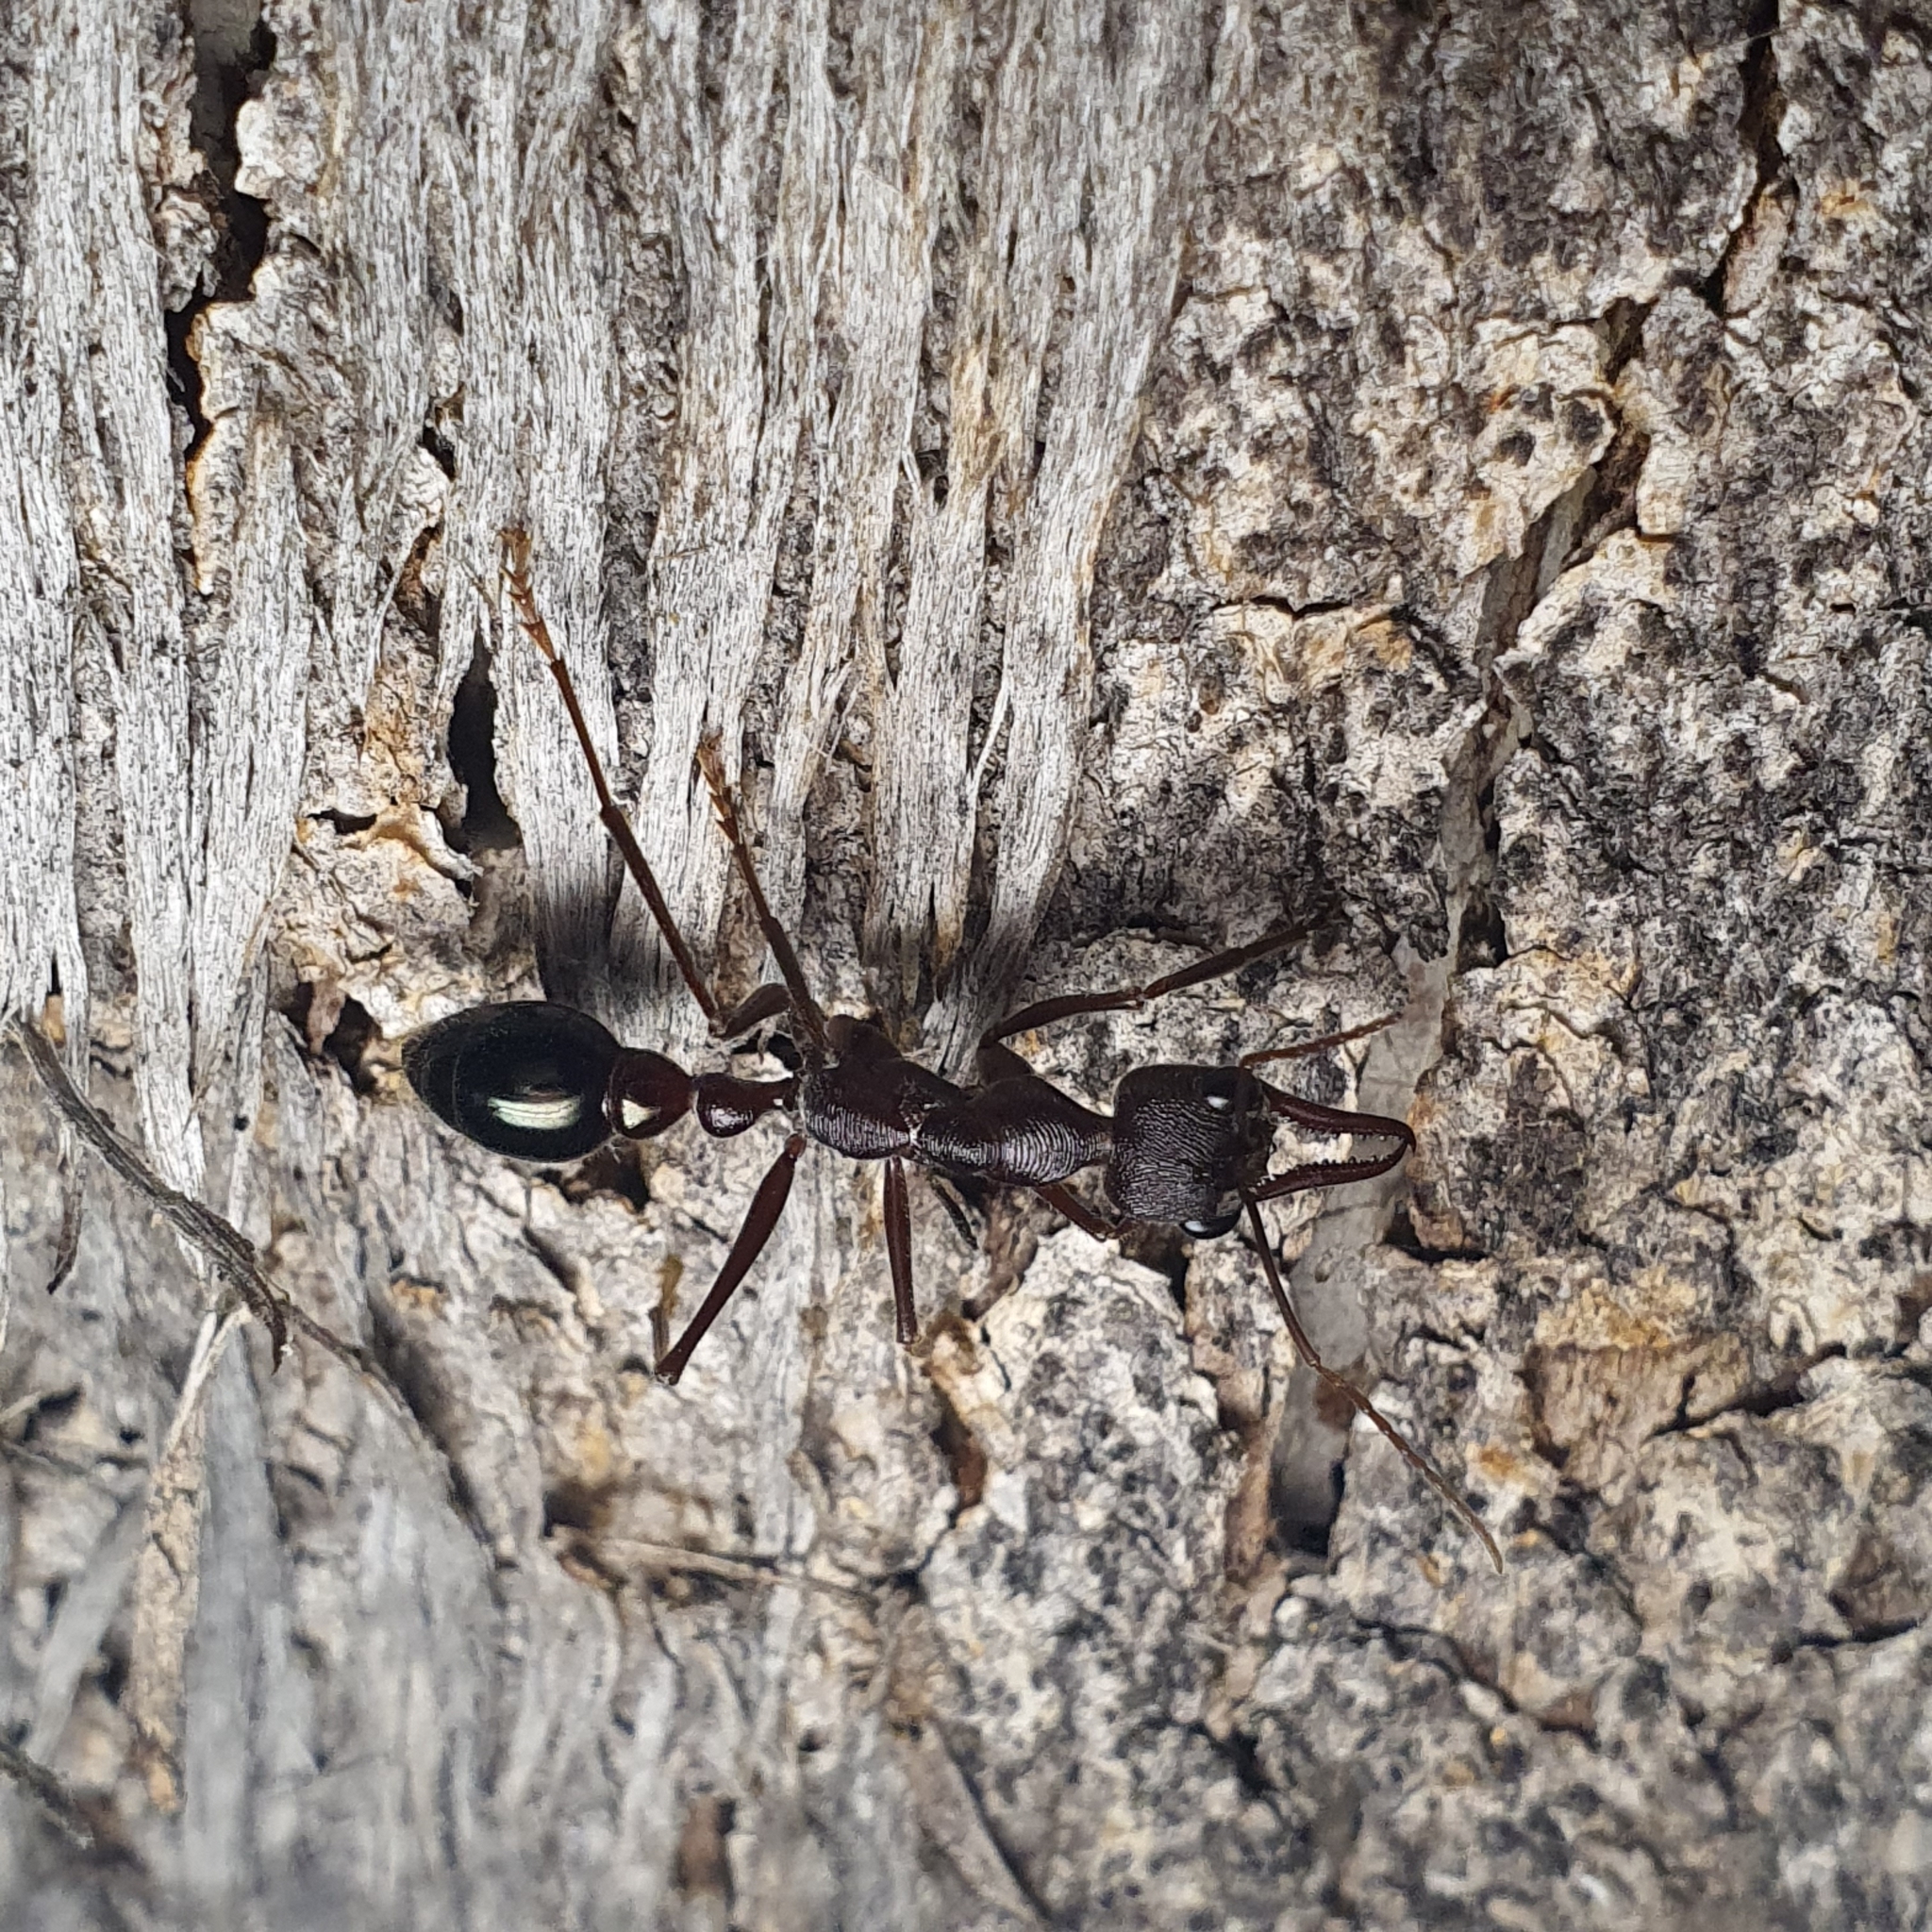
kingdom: Animalia
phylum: Arthropoda
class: Insecta
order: Hymenoptera
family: Formicidae
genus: Myrmecia
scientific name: Myrmecia forficata
